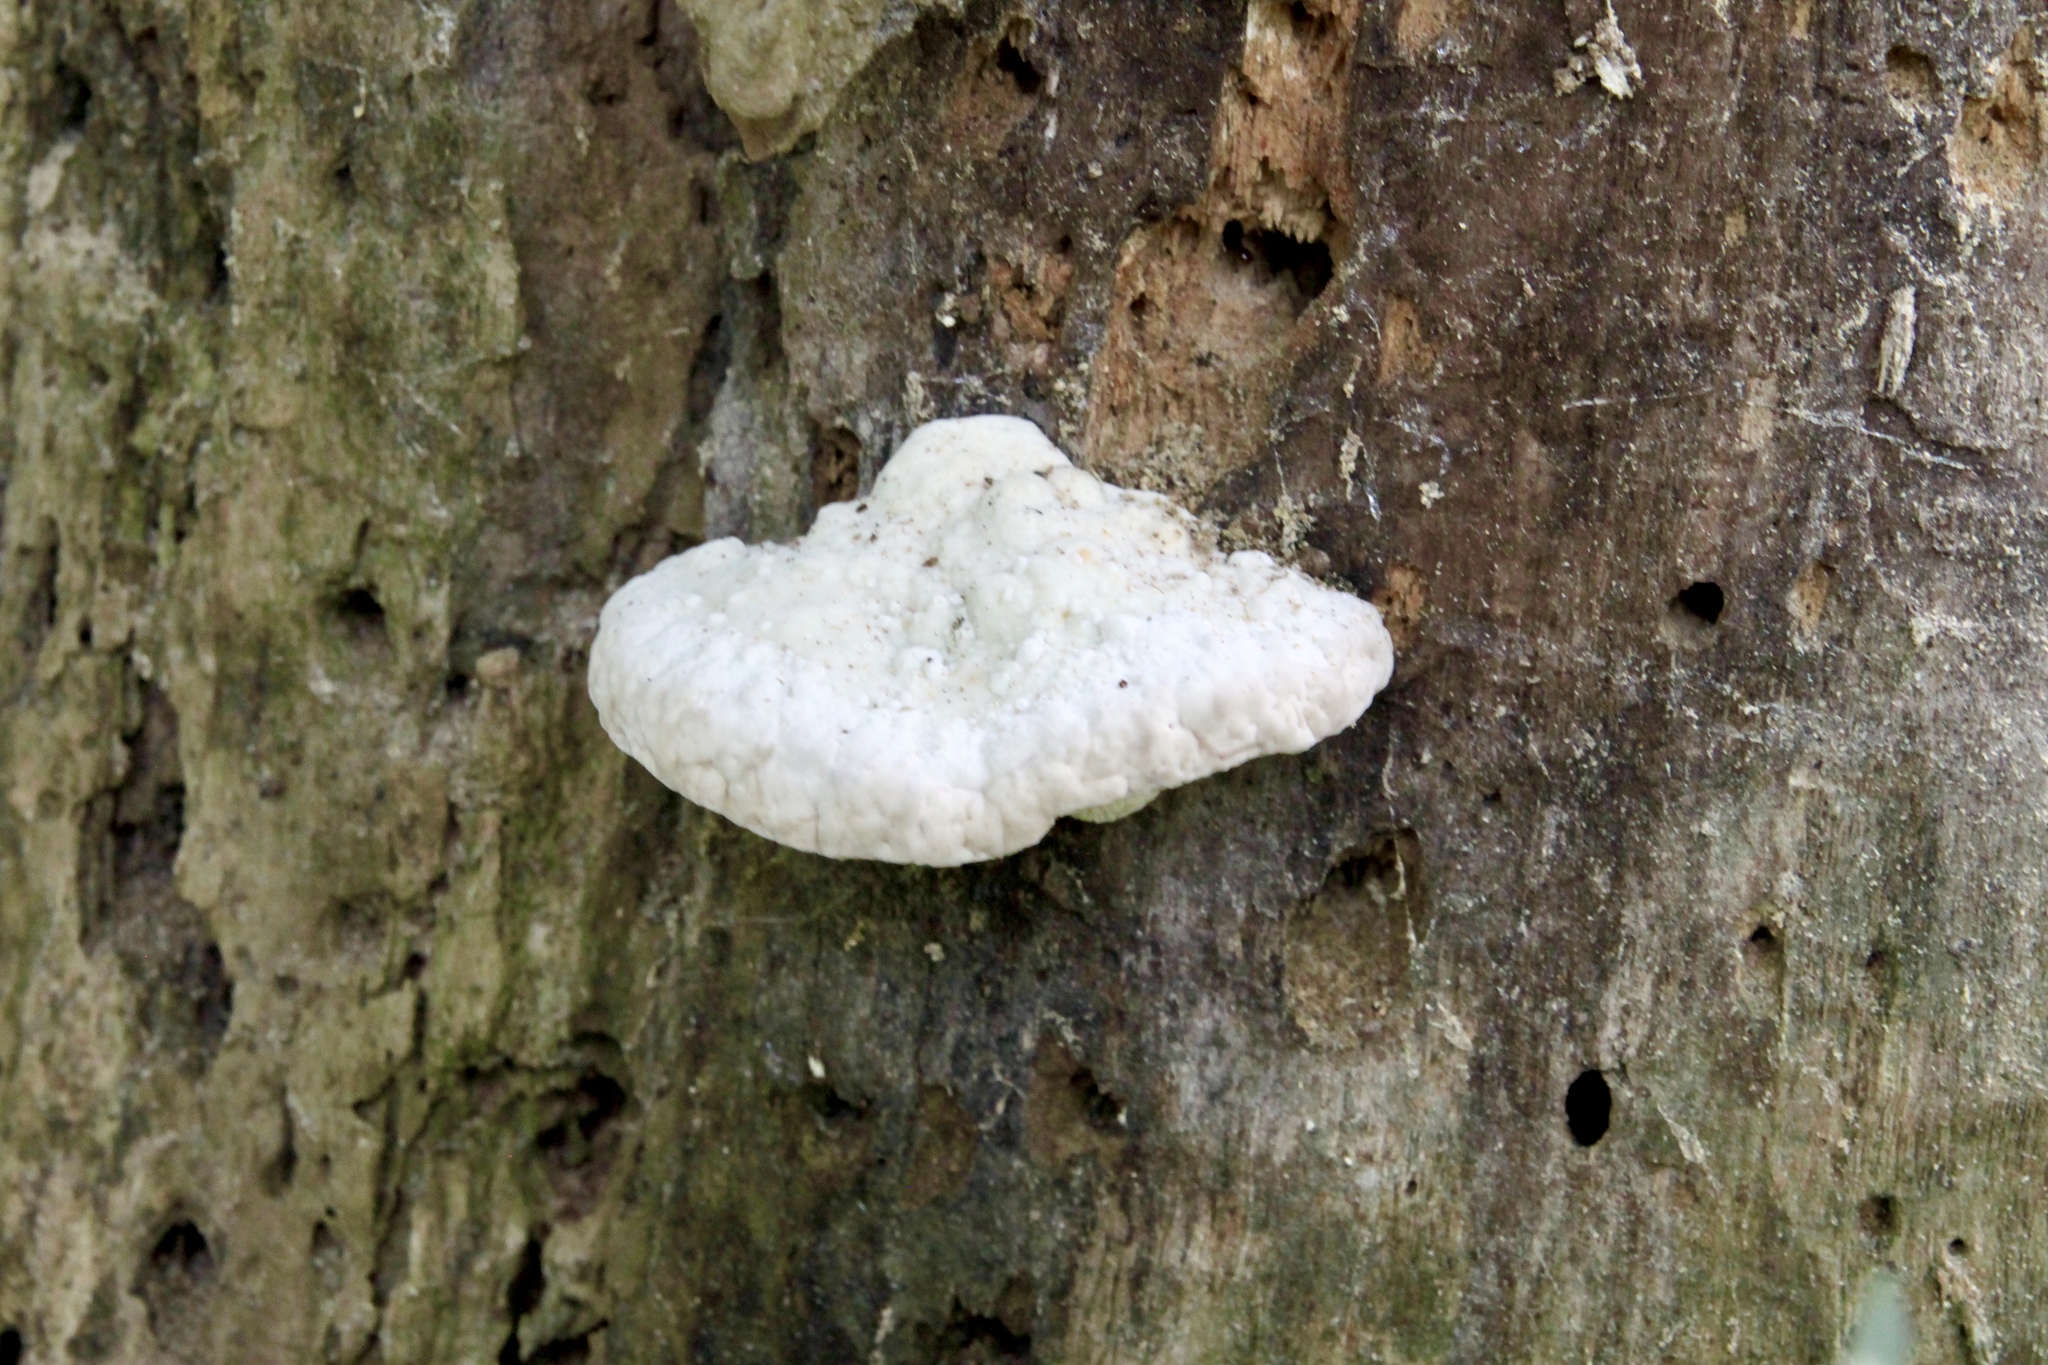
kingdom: Fungi
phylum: Basidiomycota
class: Agaricomycetes
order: Polyporales
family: Polyporaceae
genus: Trametes
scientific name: Trametes gibbosa
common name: Lumpy bracket
